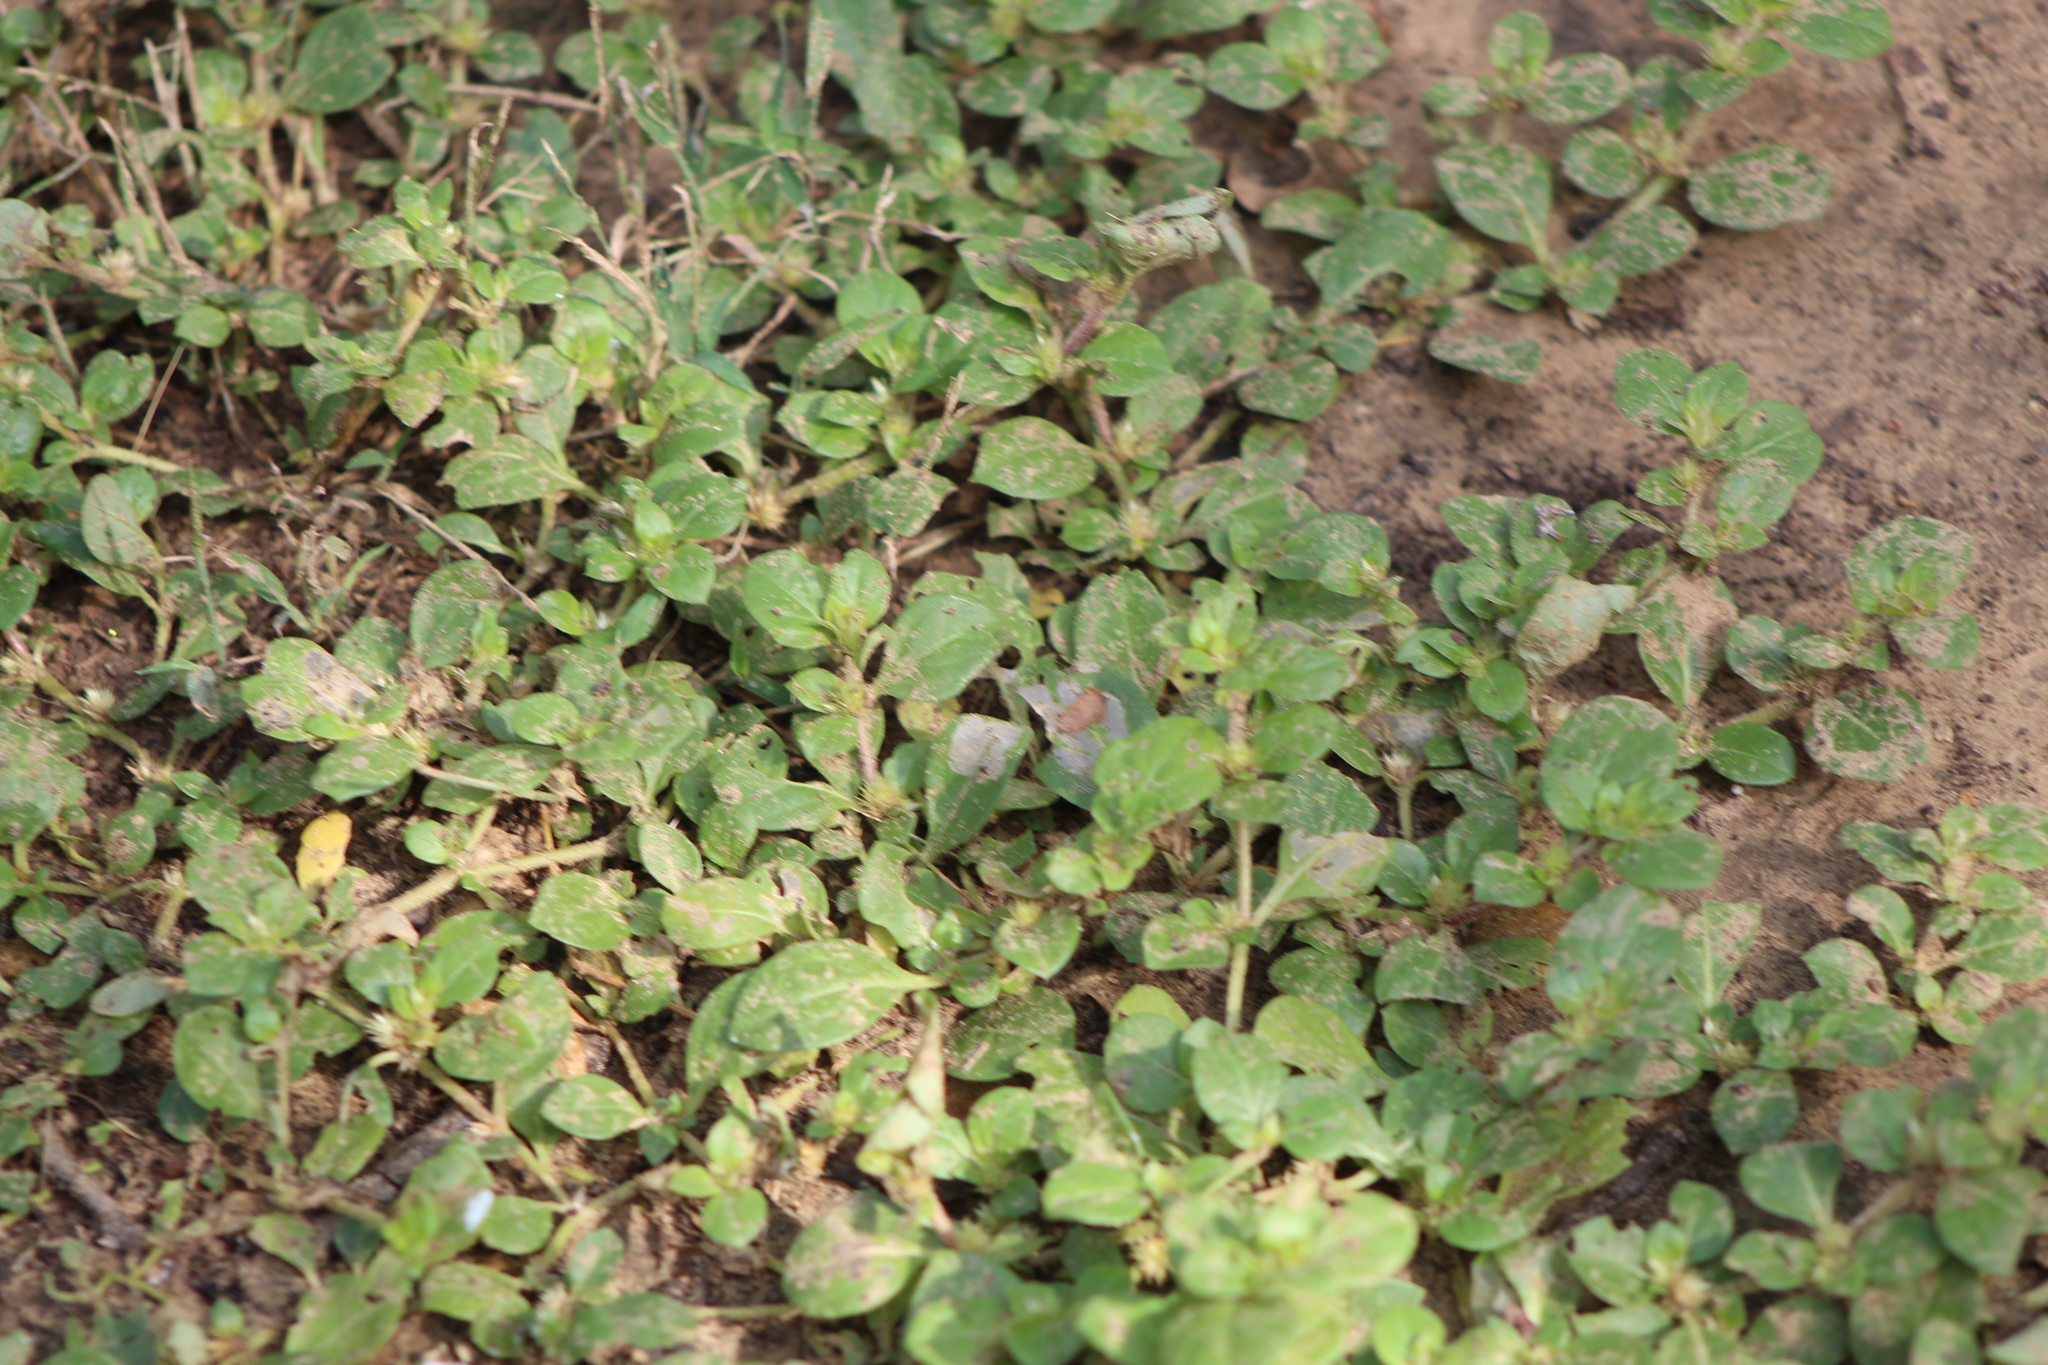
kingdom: Plantae
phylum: Tracheophyta
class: Magnoliopsida
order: Caryophyllales
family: Amaranthaceae
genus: Alternanthera
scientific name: Alternanthera pungens
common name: Khakiweed
